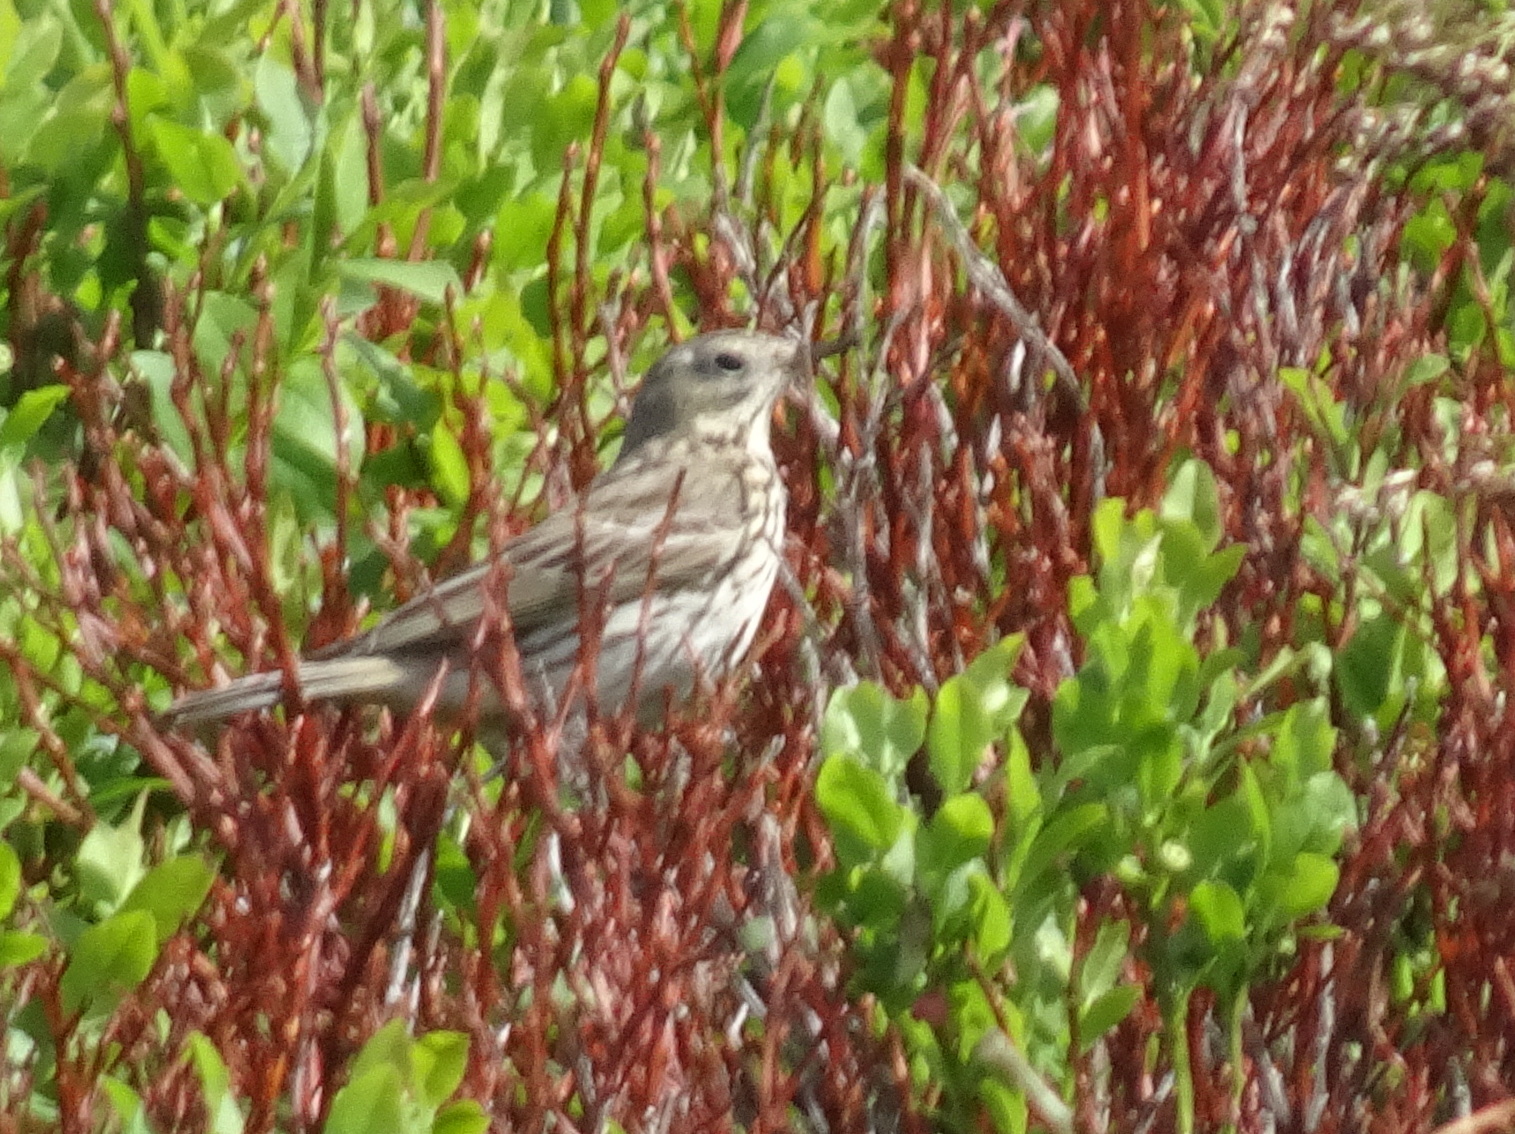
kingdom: Animalia
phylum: Chordata
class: Aves
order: Passeriformes
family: Motacillidae
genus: Anthus
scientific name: Anthus pratensis
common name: Meadow pipit
